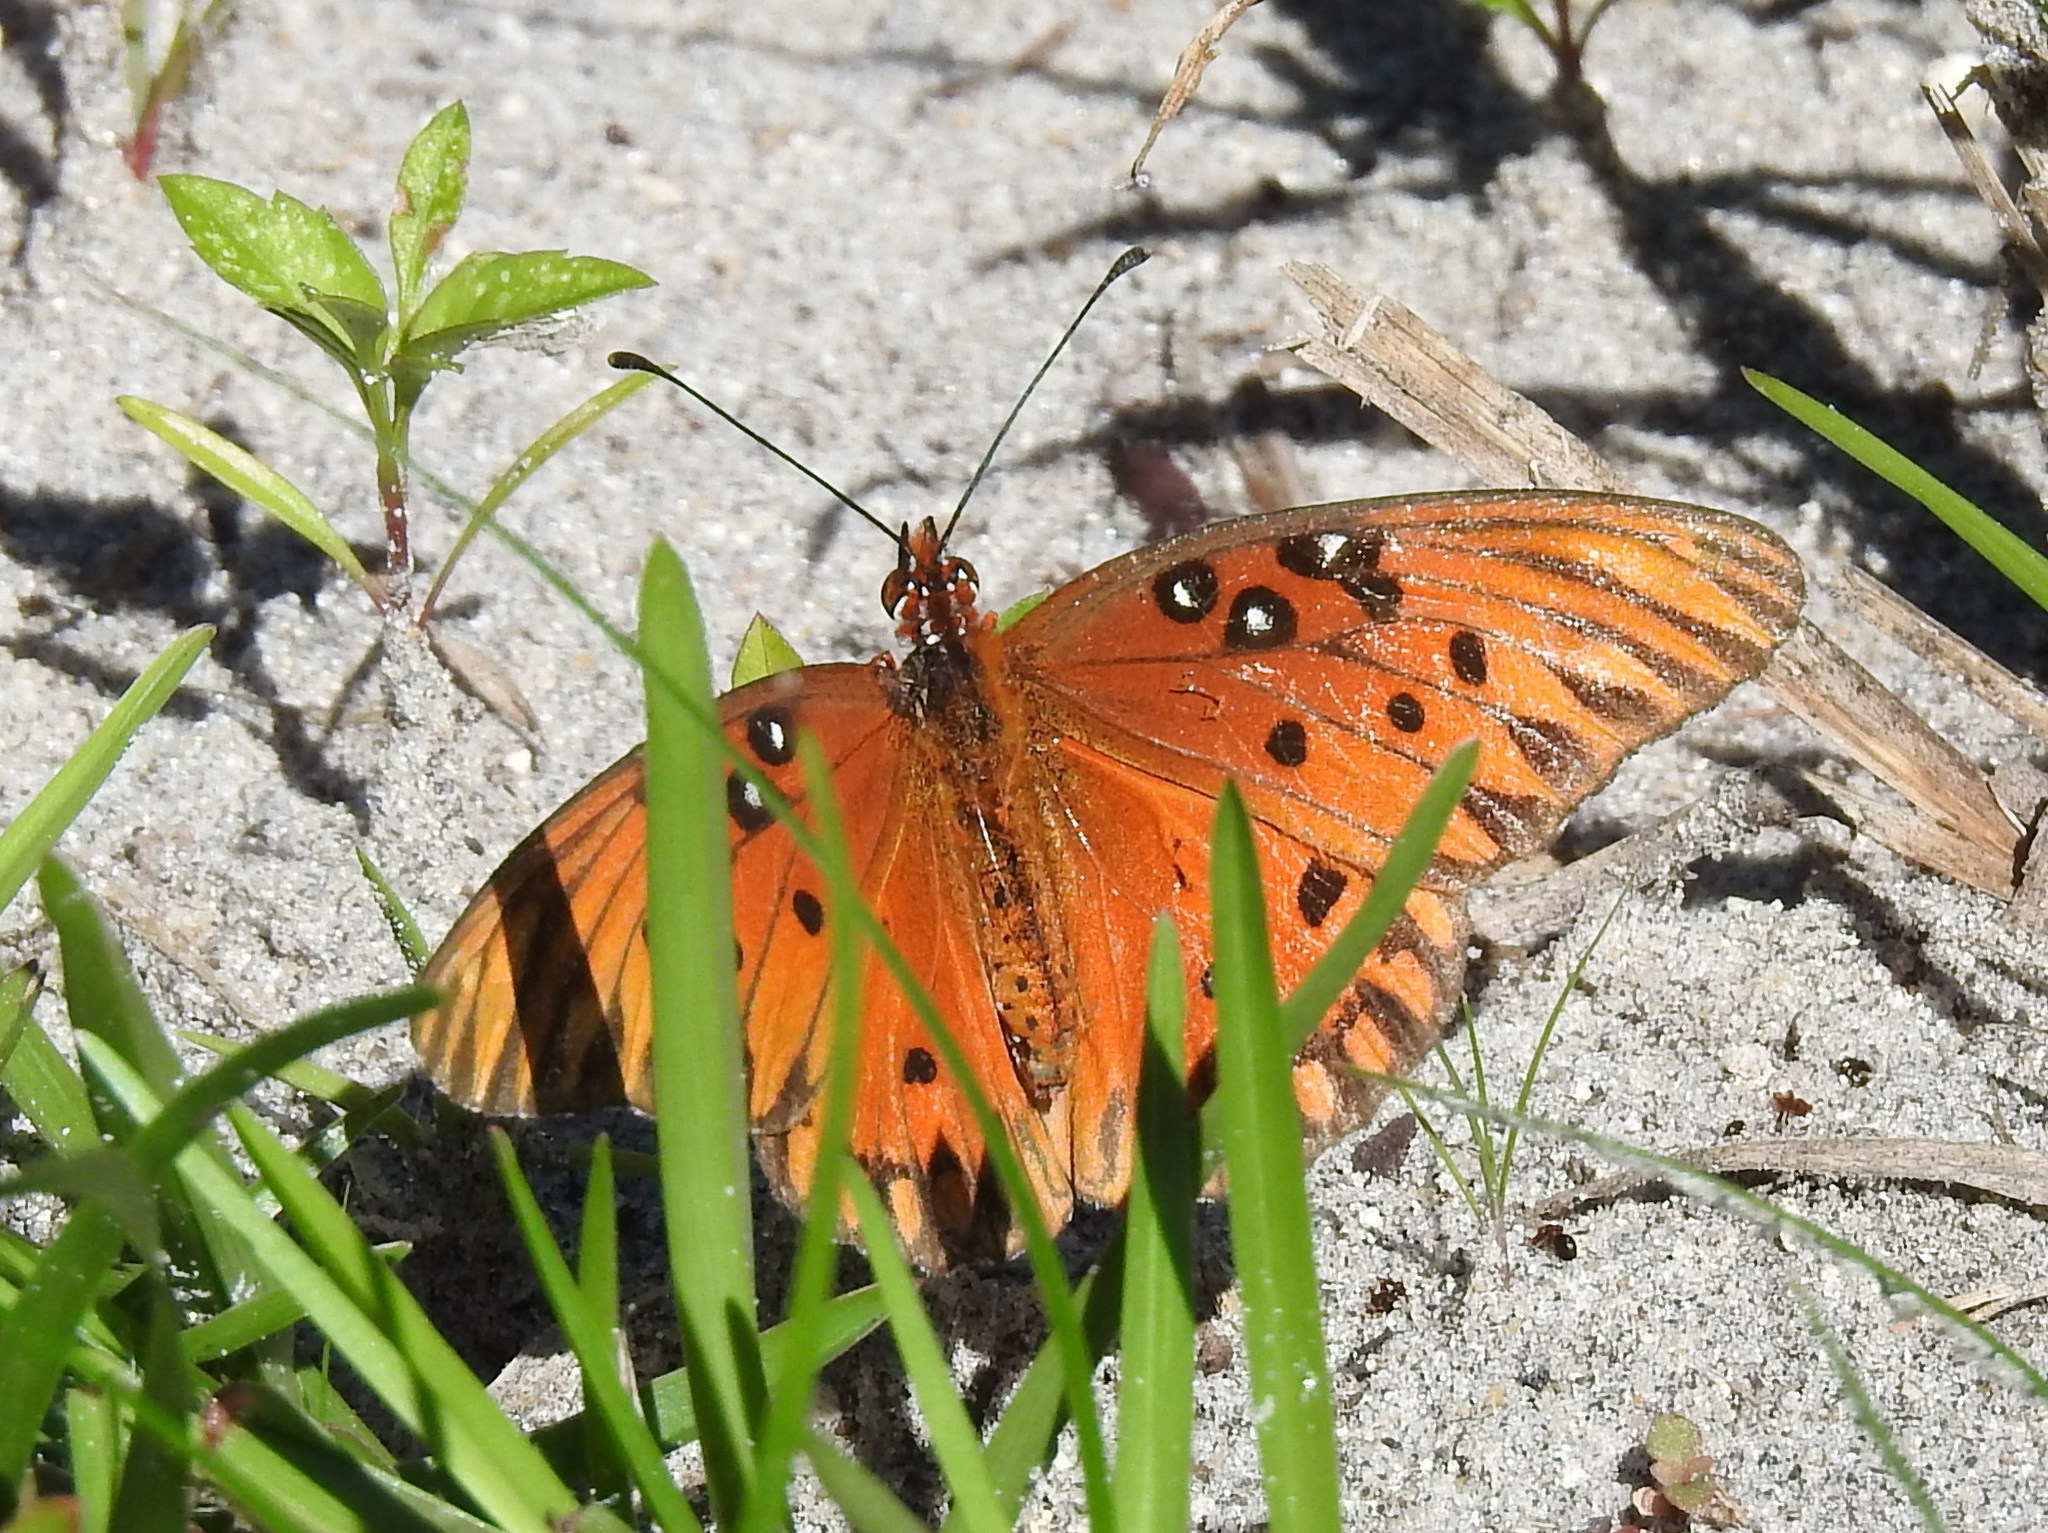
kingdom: Animalia
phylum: Arthropoda
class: Insecta
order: Lepidoptera
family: Nymphalidae
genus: Dione
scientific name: Dione vanillae
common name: Gulf fritillary
